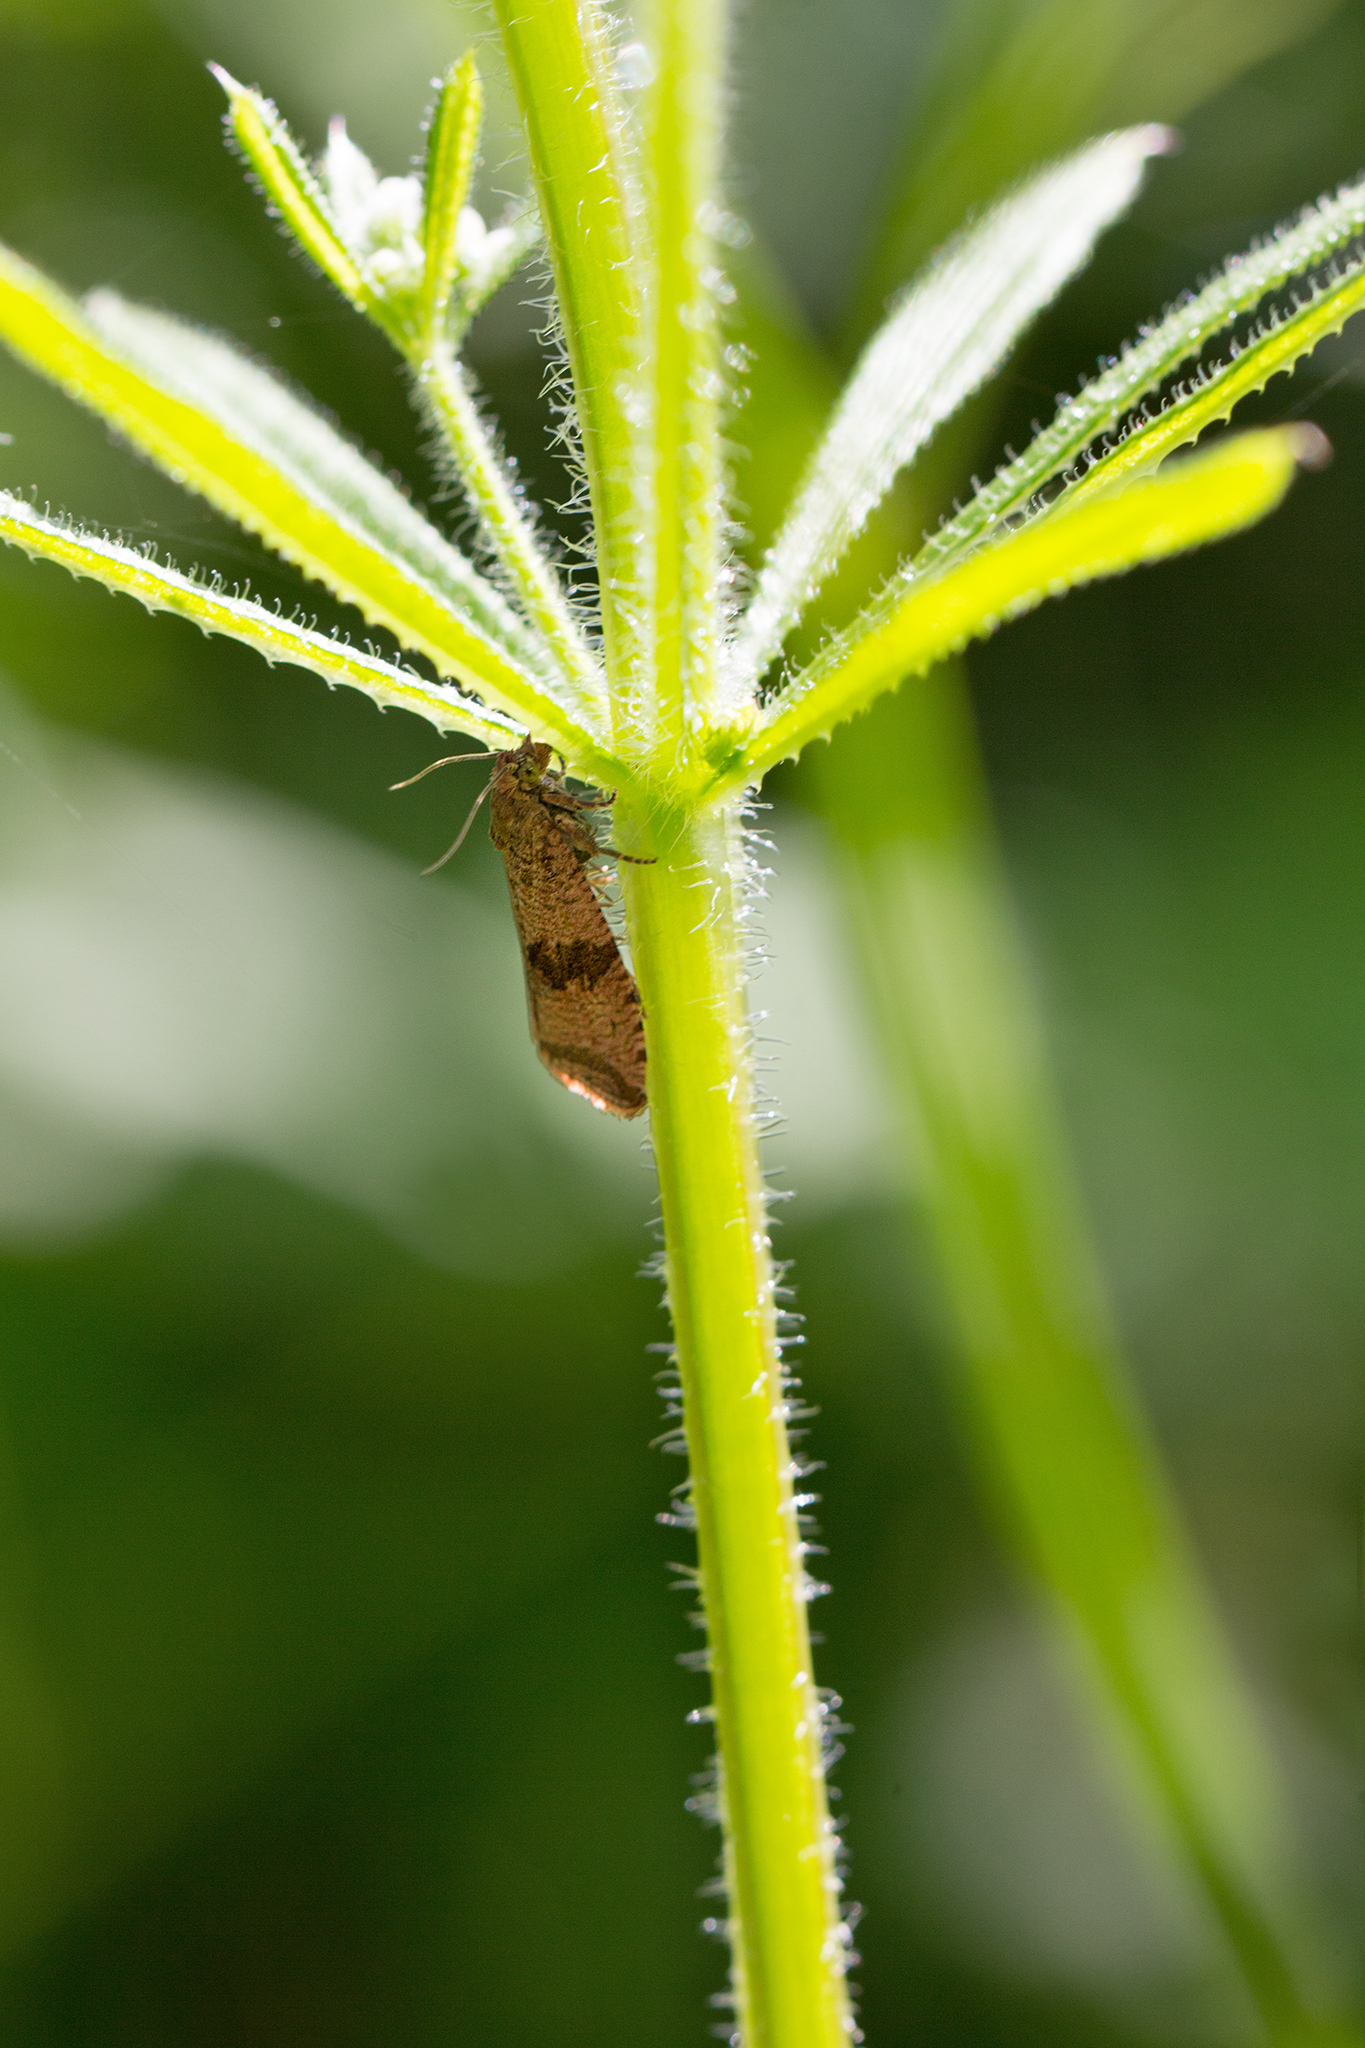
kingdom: Animalia
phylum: Arthropoda
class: Insecta
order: Lepidoptera
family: Tortricidae
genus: Celypha
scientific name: Celypha striana
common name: Barred marble
